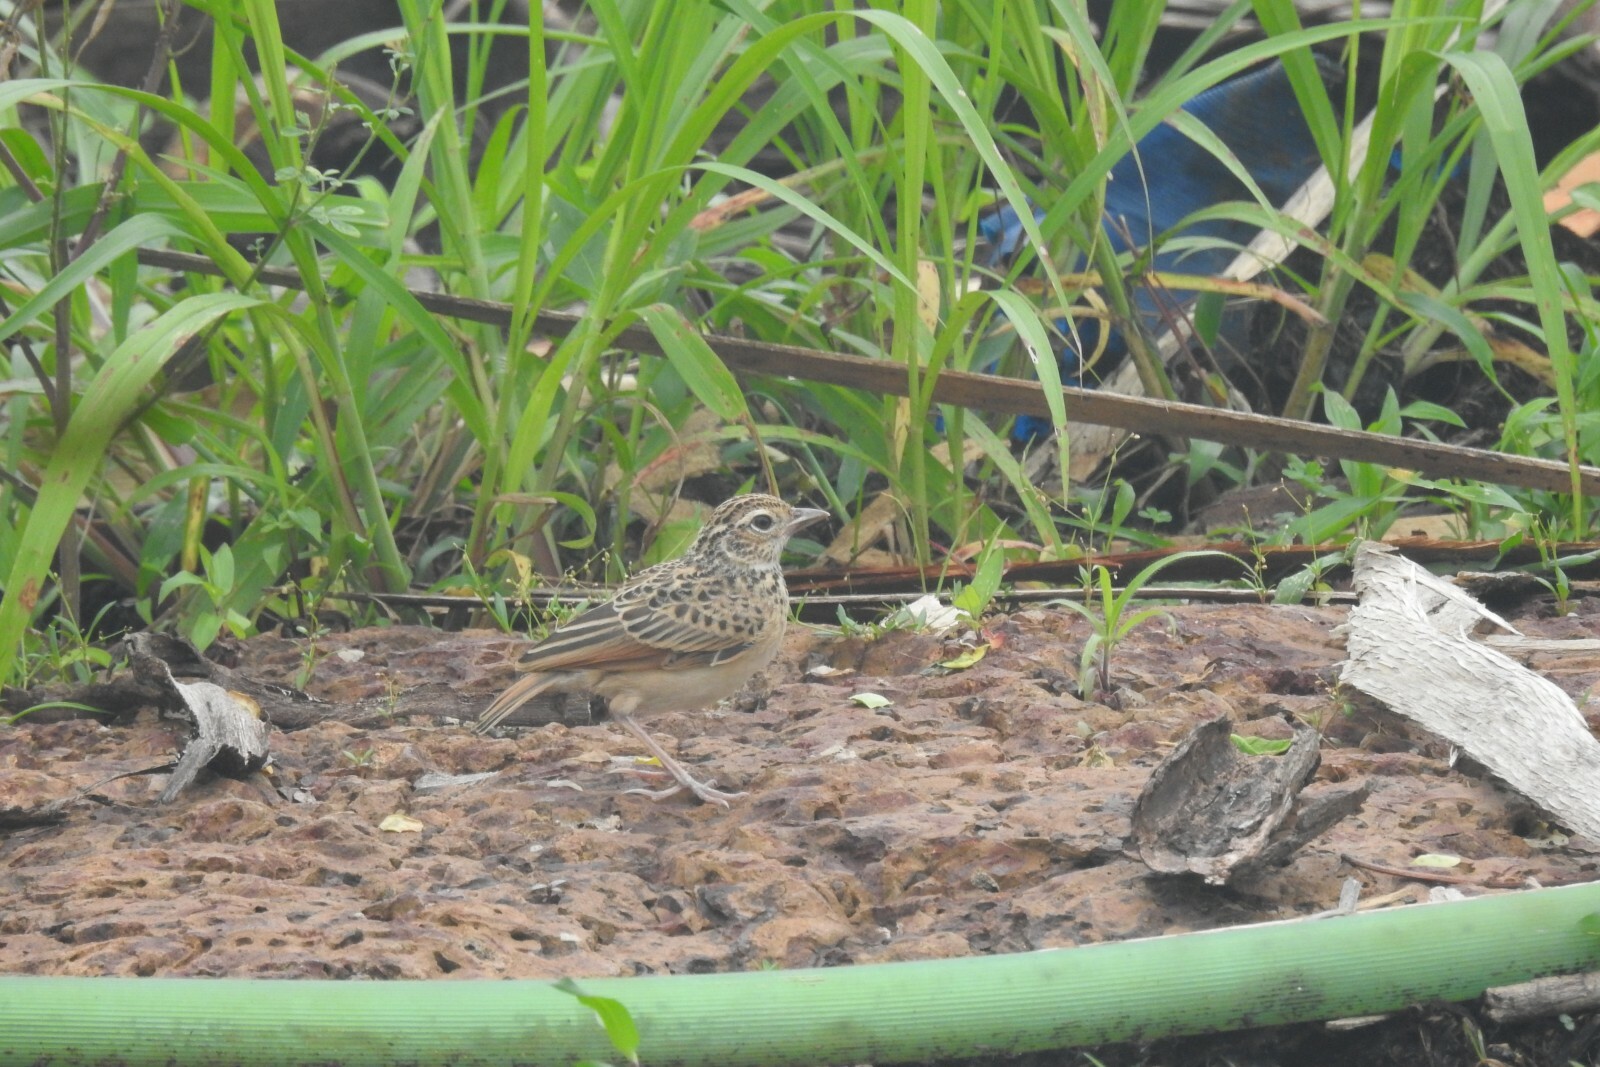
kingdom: Animalia
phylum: Chordata
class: Aves
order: Passeriformes
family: Alaudidae
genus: Mirafra
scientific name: Mirafra affinis
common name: Jerdon's bushlark
